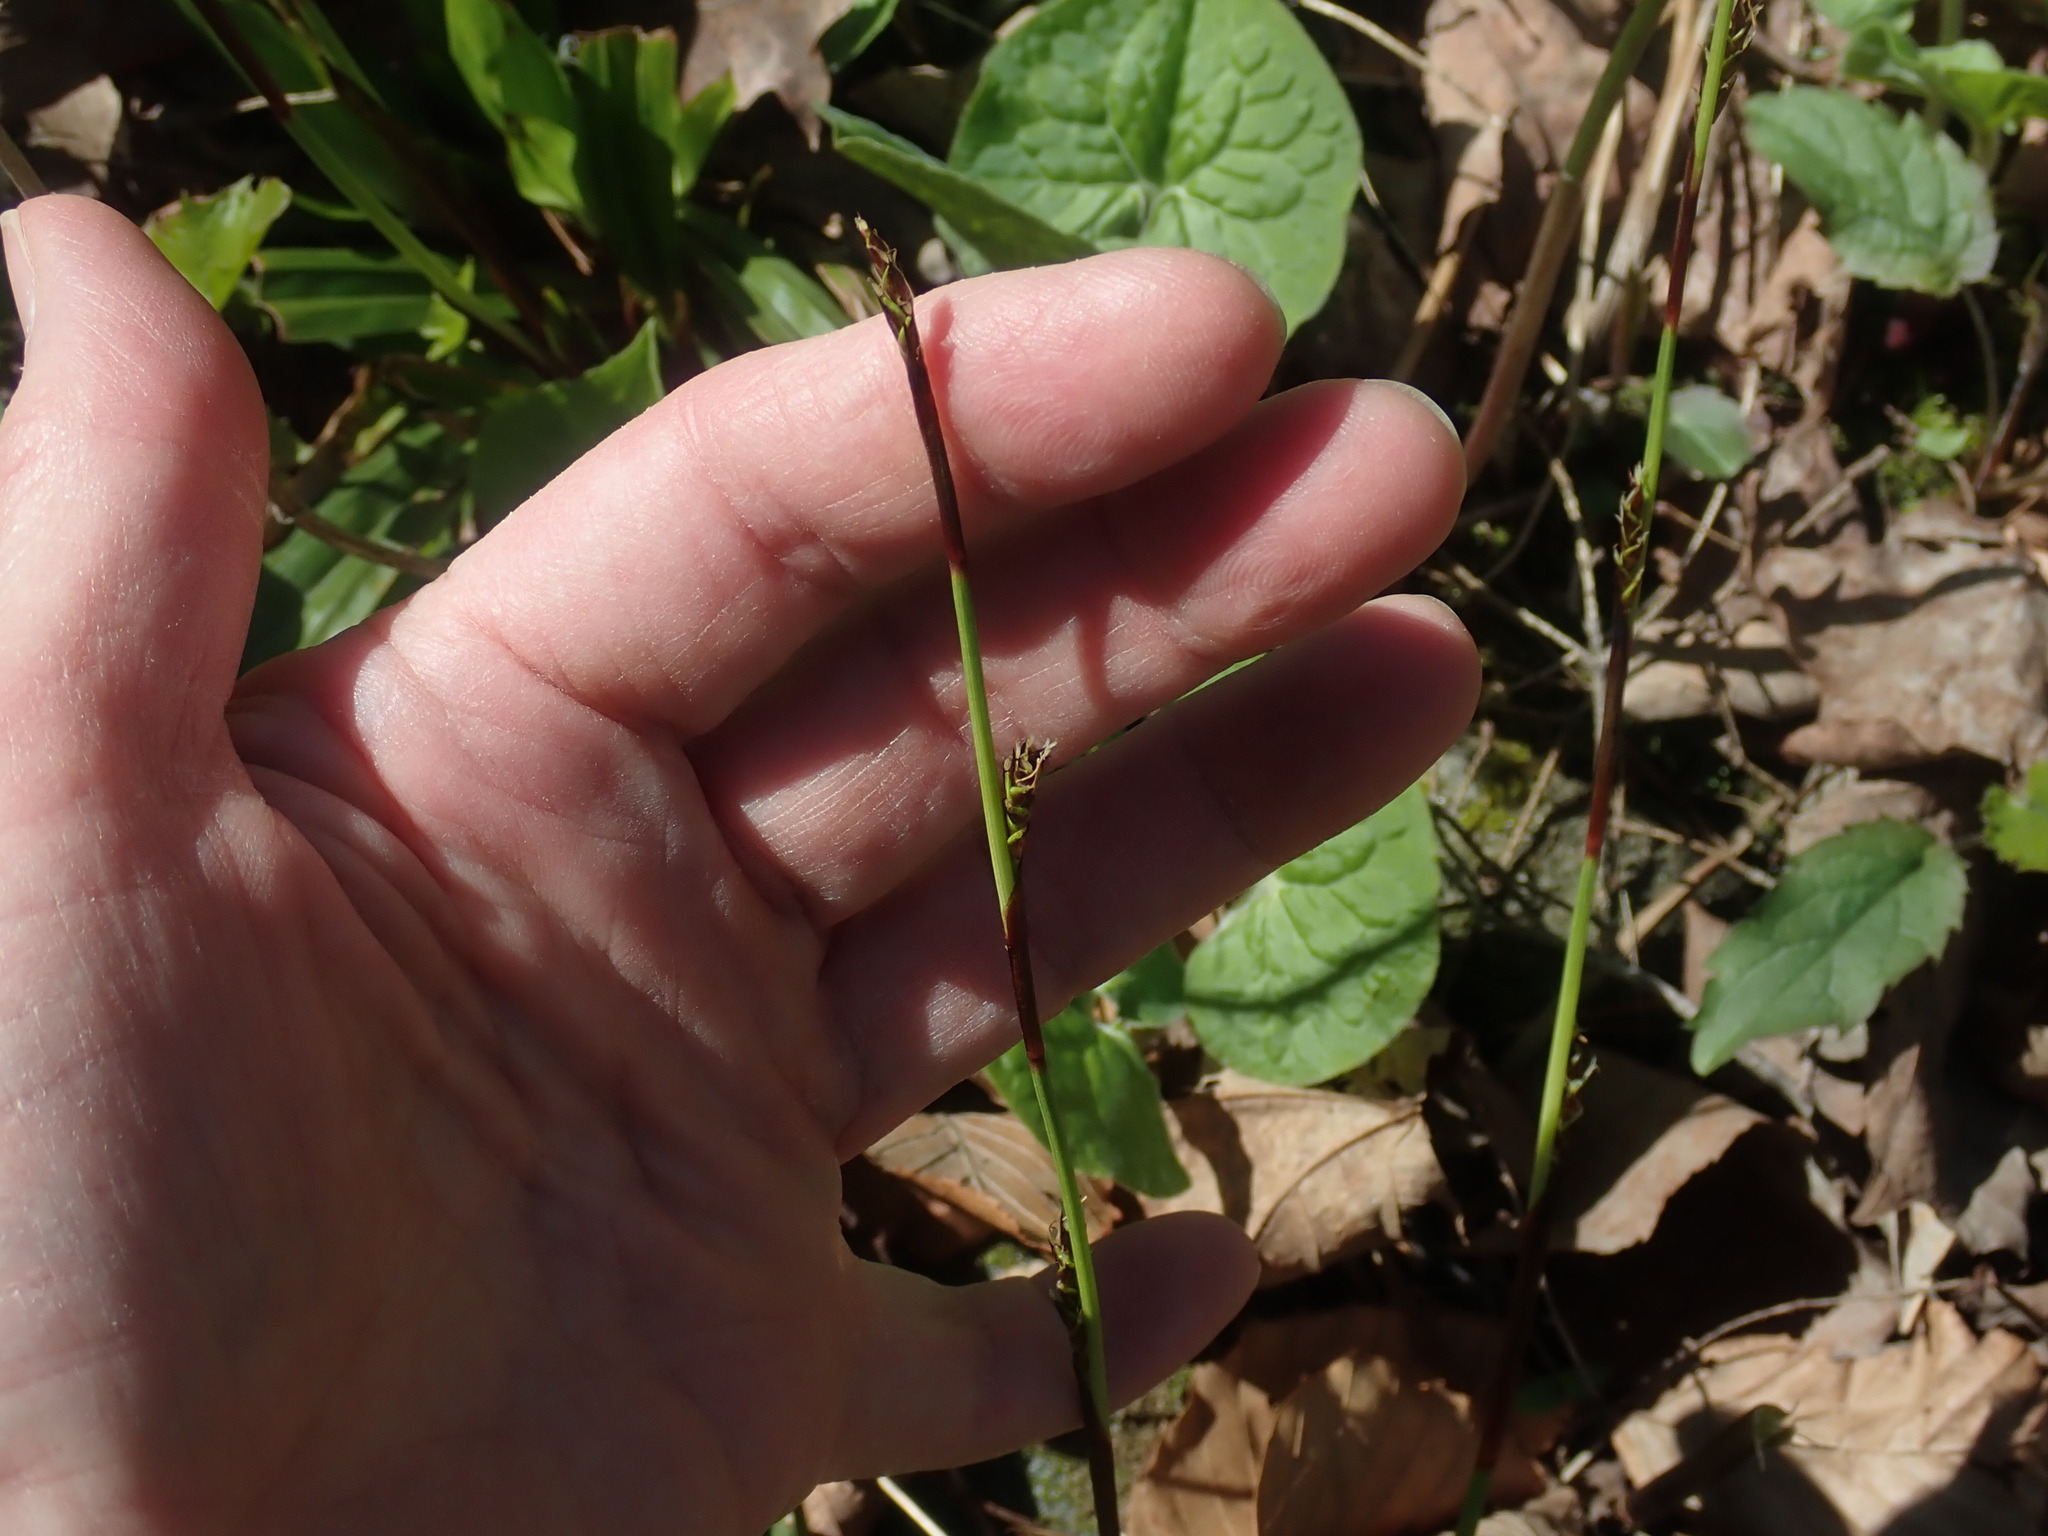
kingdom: Plantae
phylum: Tracheophyta
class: Liliopsida
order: Poales
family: Cyperaceae
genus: Carex
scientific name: Carex plantaginea
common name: Plantain-leaved sedge
